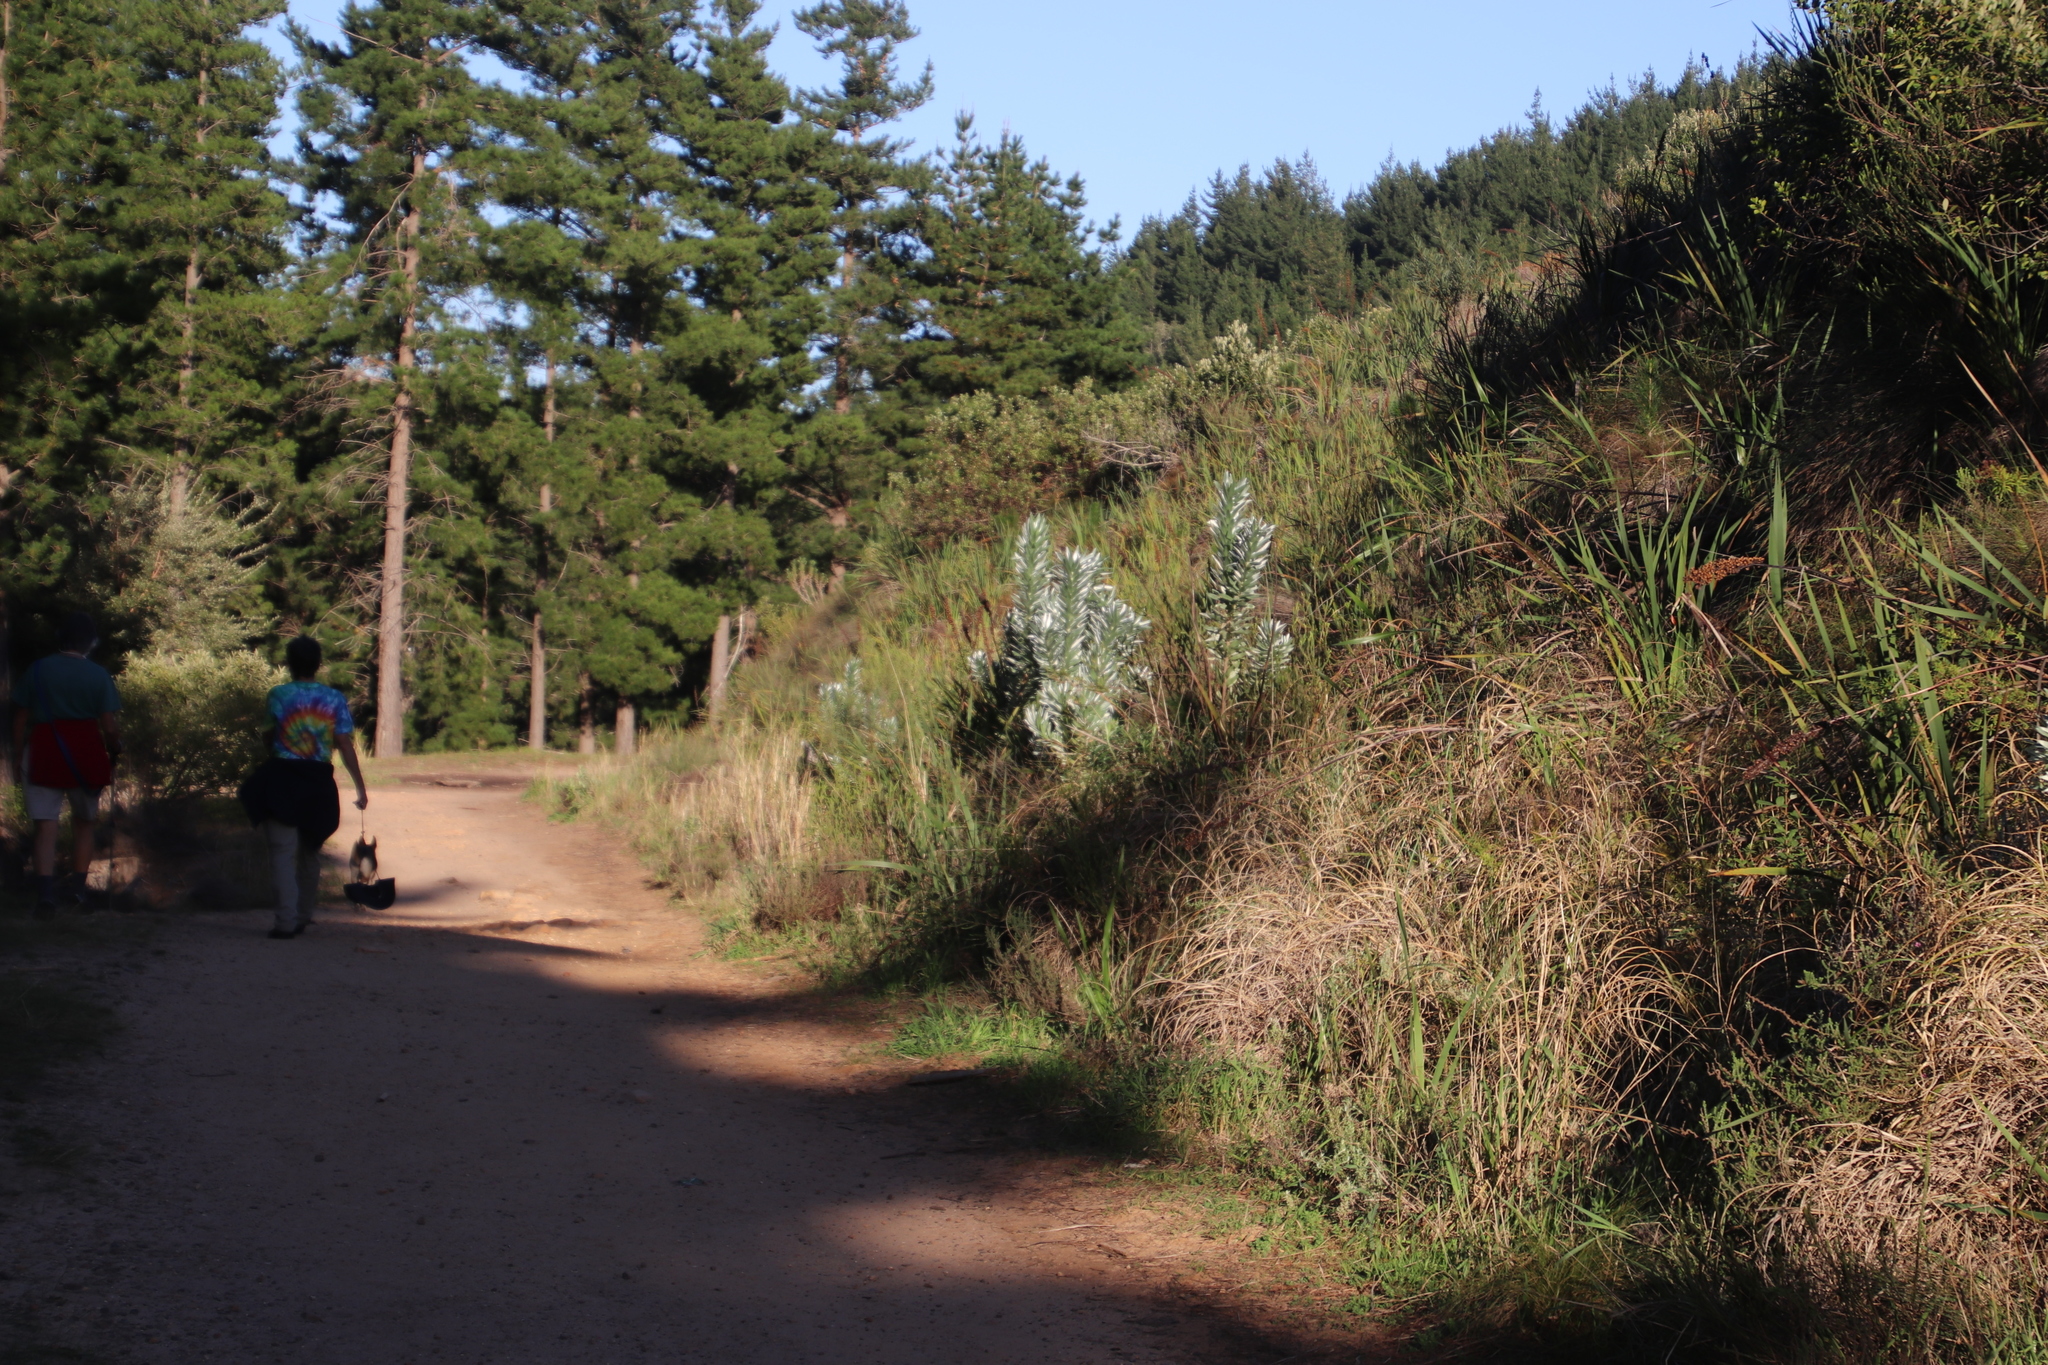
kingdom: Plantae
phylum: Tracheophyta
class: Magnoliopsida
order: Proteales
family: Proteaceae
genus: Leucadendron
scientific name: Leucadendron argenteum
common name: Cape silver tree
